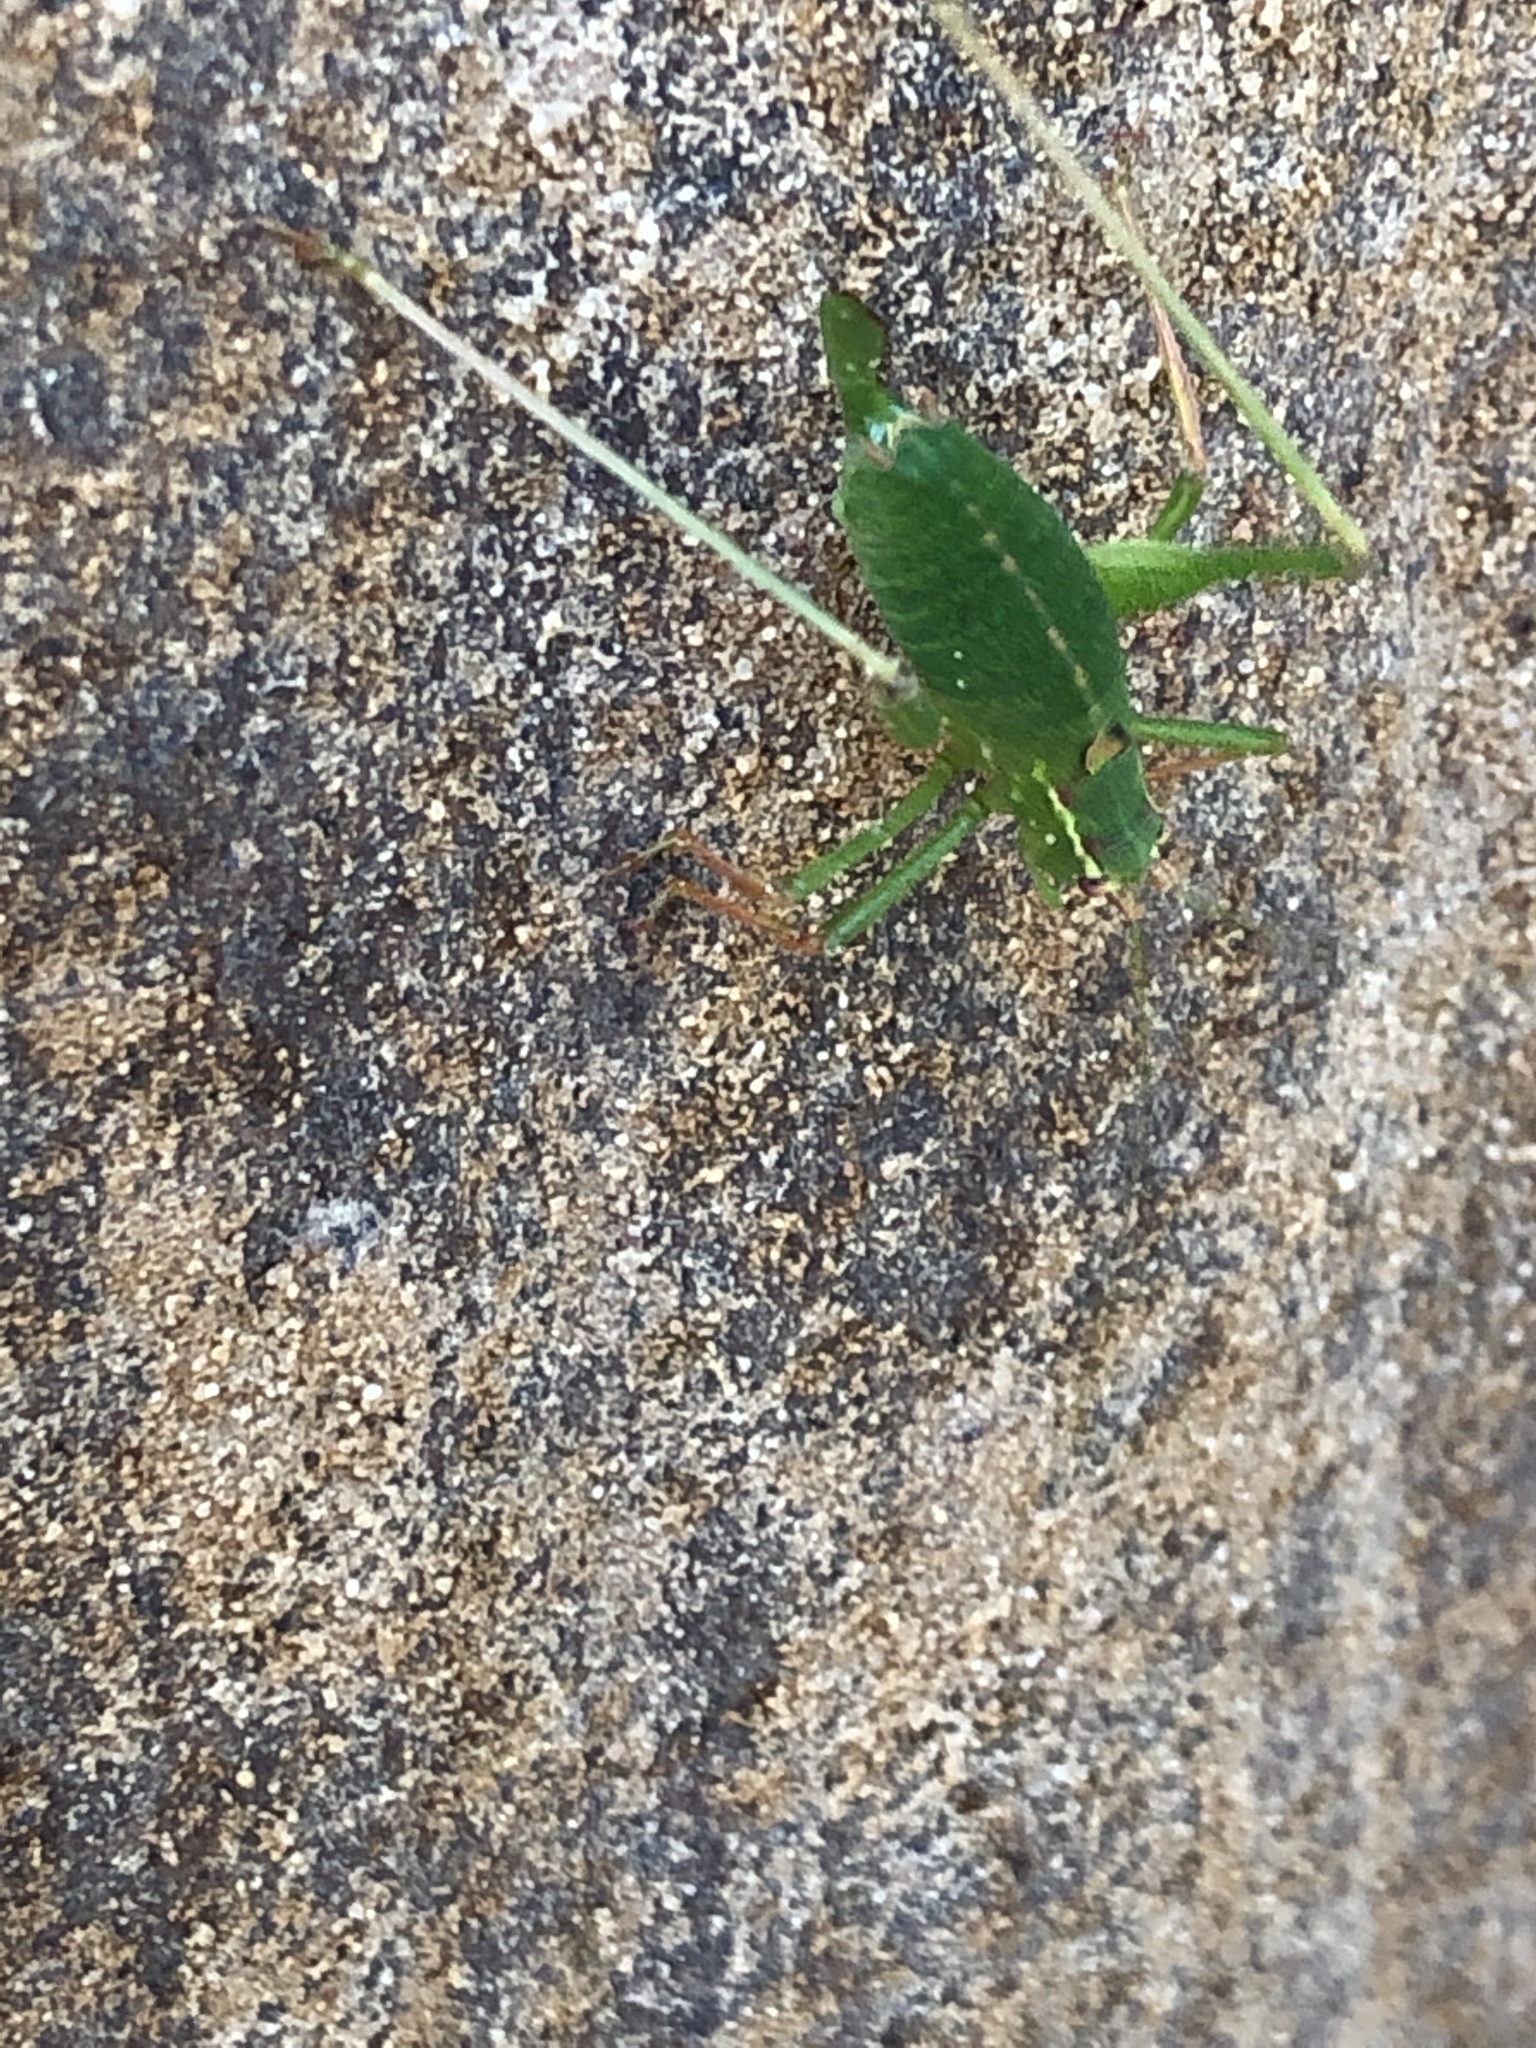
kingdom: Animalia
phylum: Arthropoda
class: Insecta
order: Orthoptera
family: Tettigoniidae
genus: Leptophyes
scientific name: Leptophyes punctatissima
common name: Speckled bush-cricket
